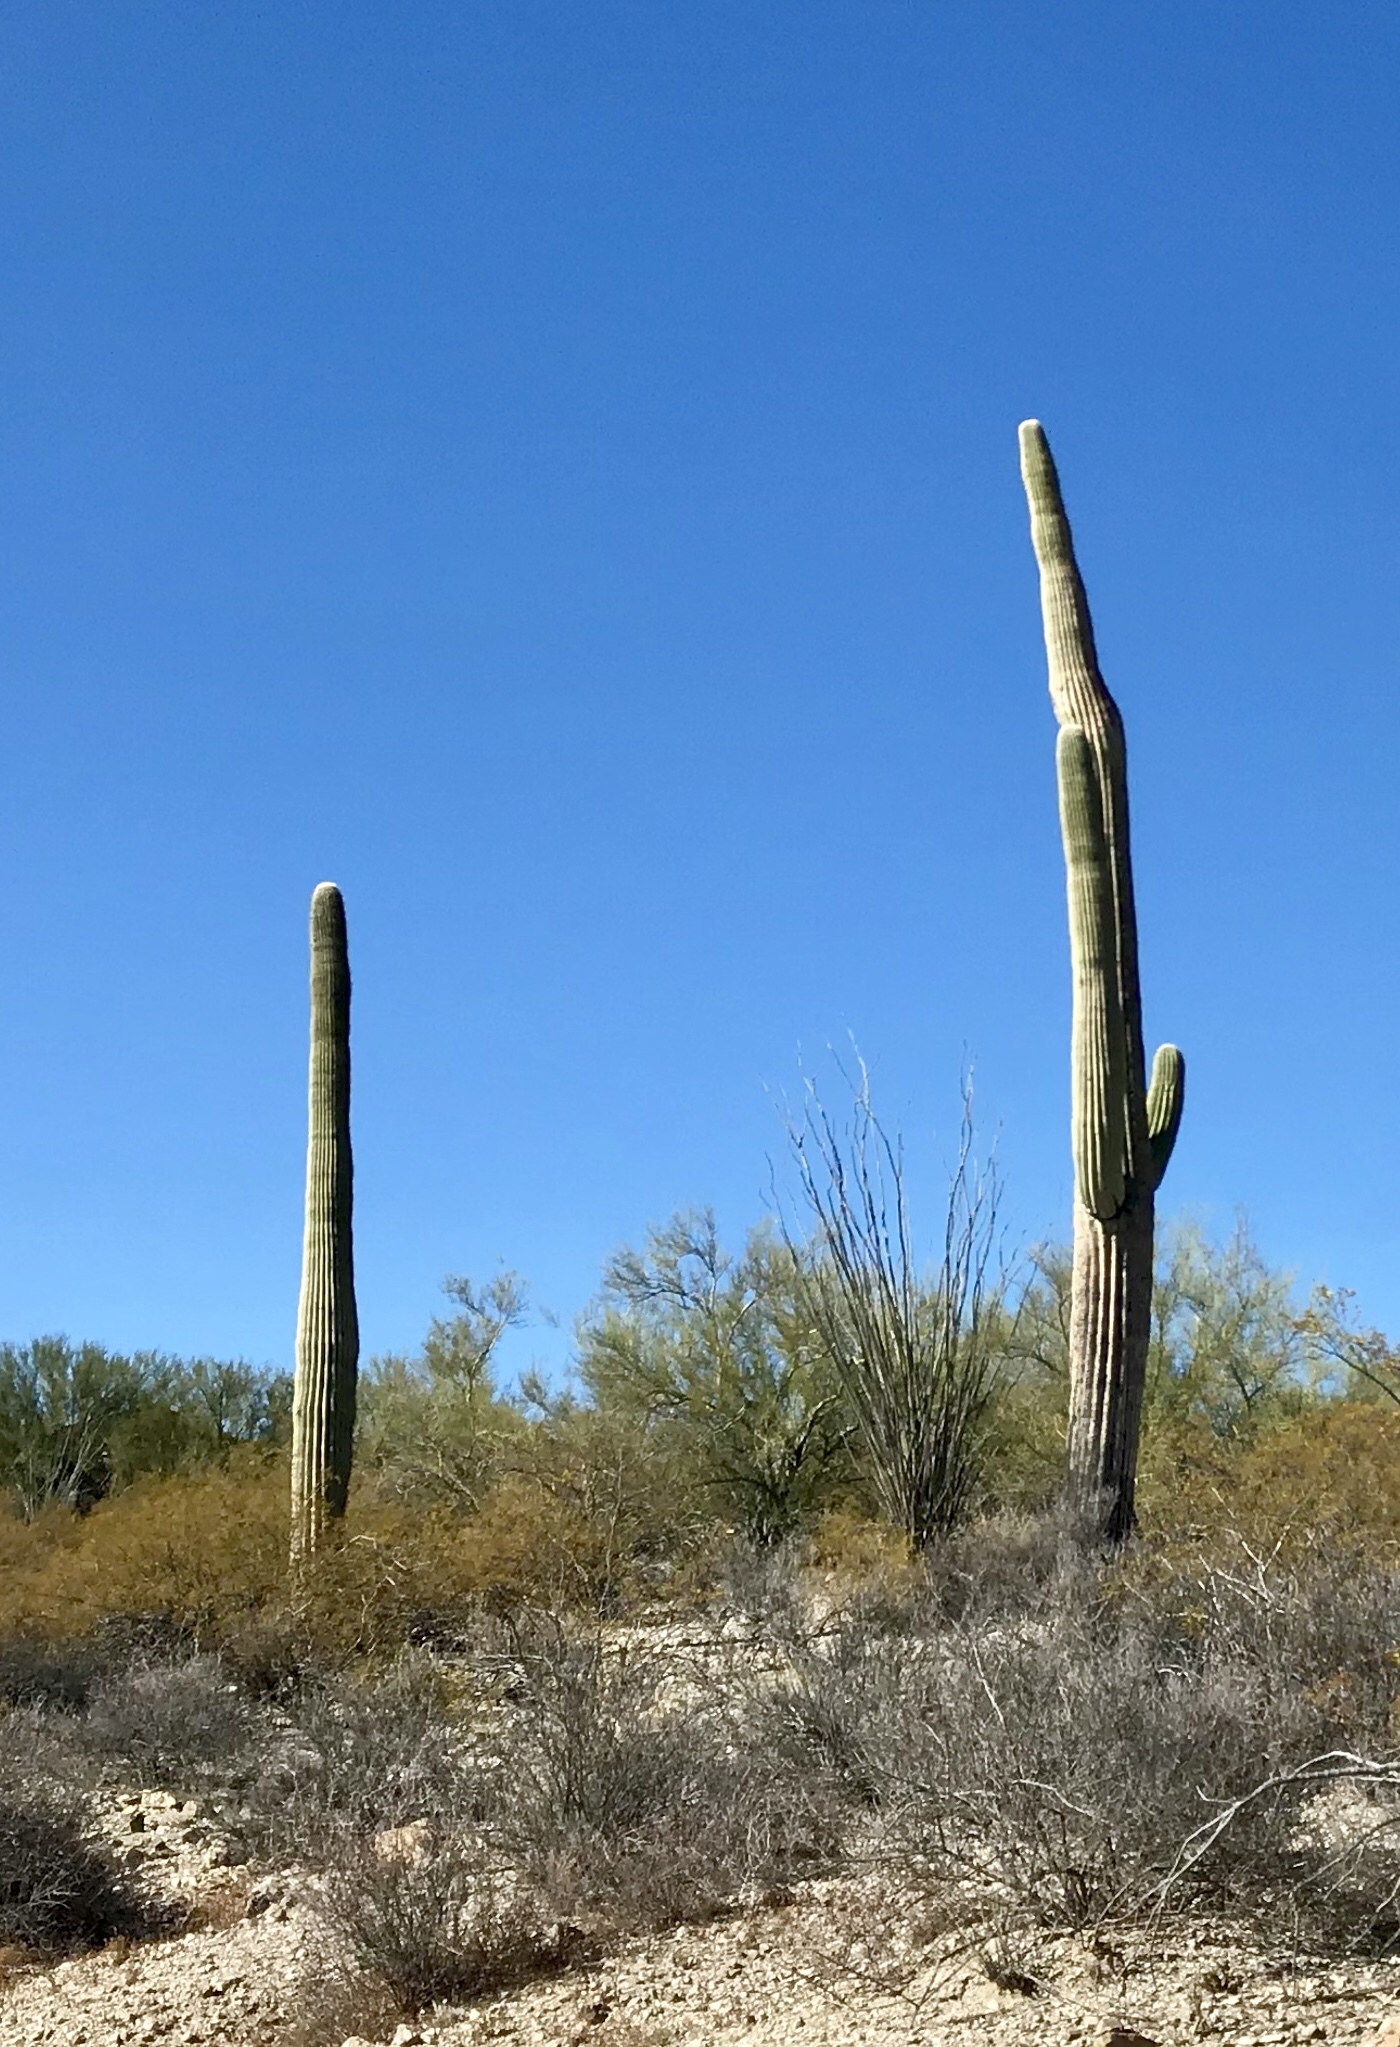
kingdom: Plantae
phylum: Tracheophyta
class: Magnoliopsida
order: Caryophyllales
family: Cactaceae
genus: Carnegiea
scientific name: Carnegiea gigantea
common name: Saguaro
